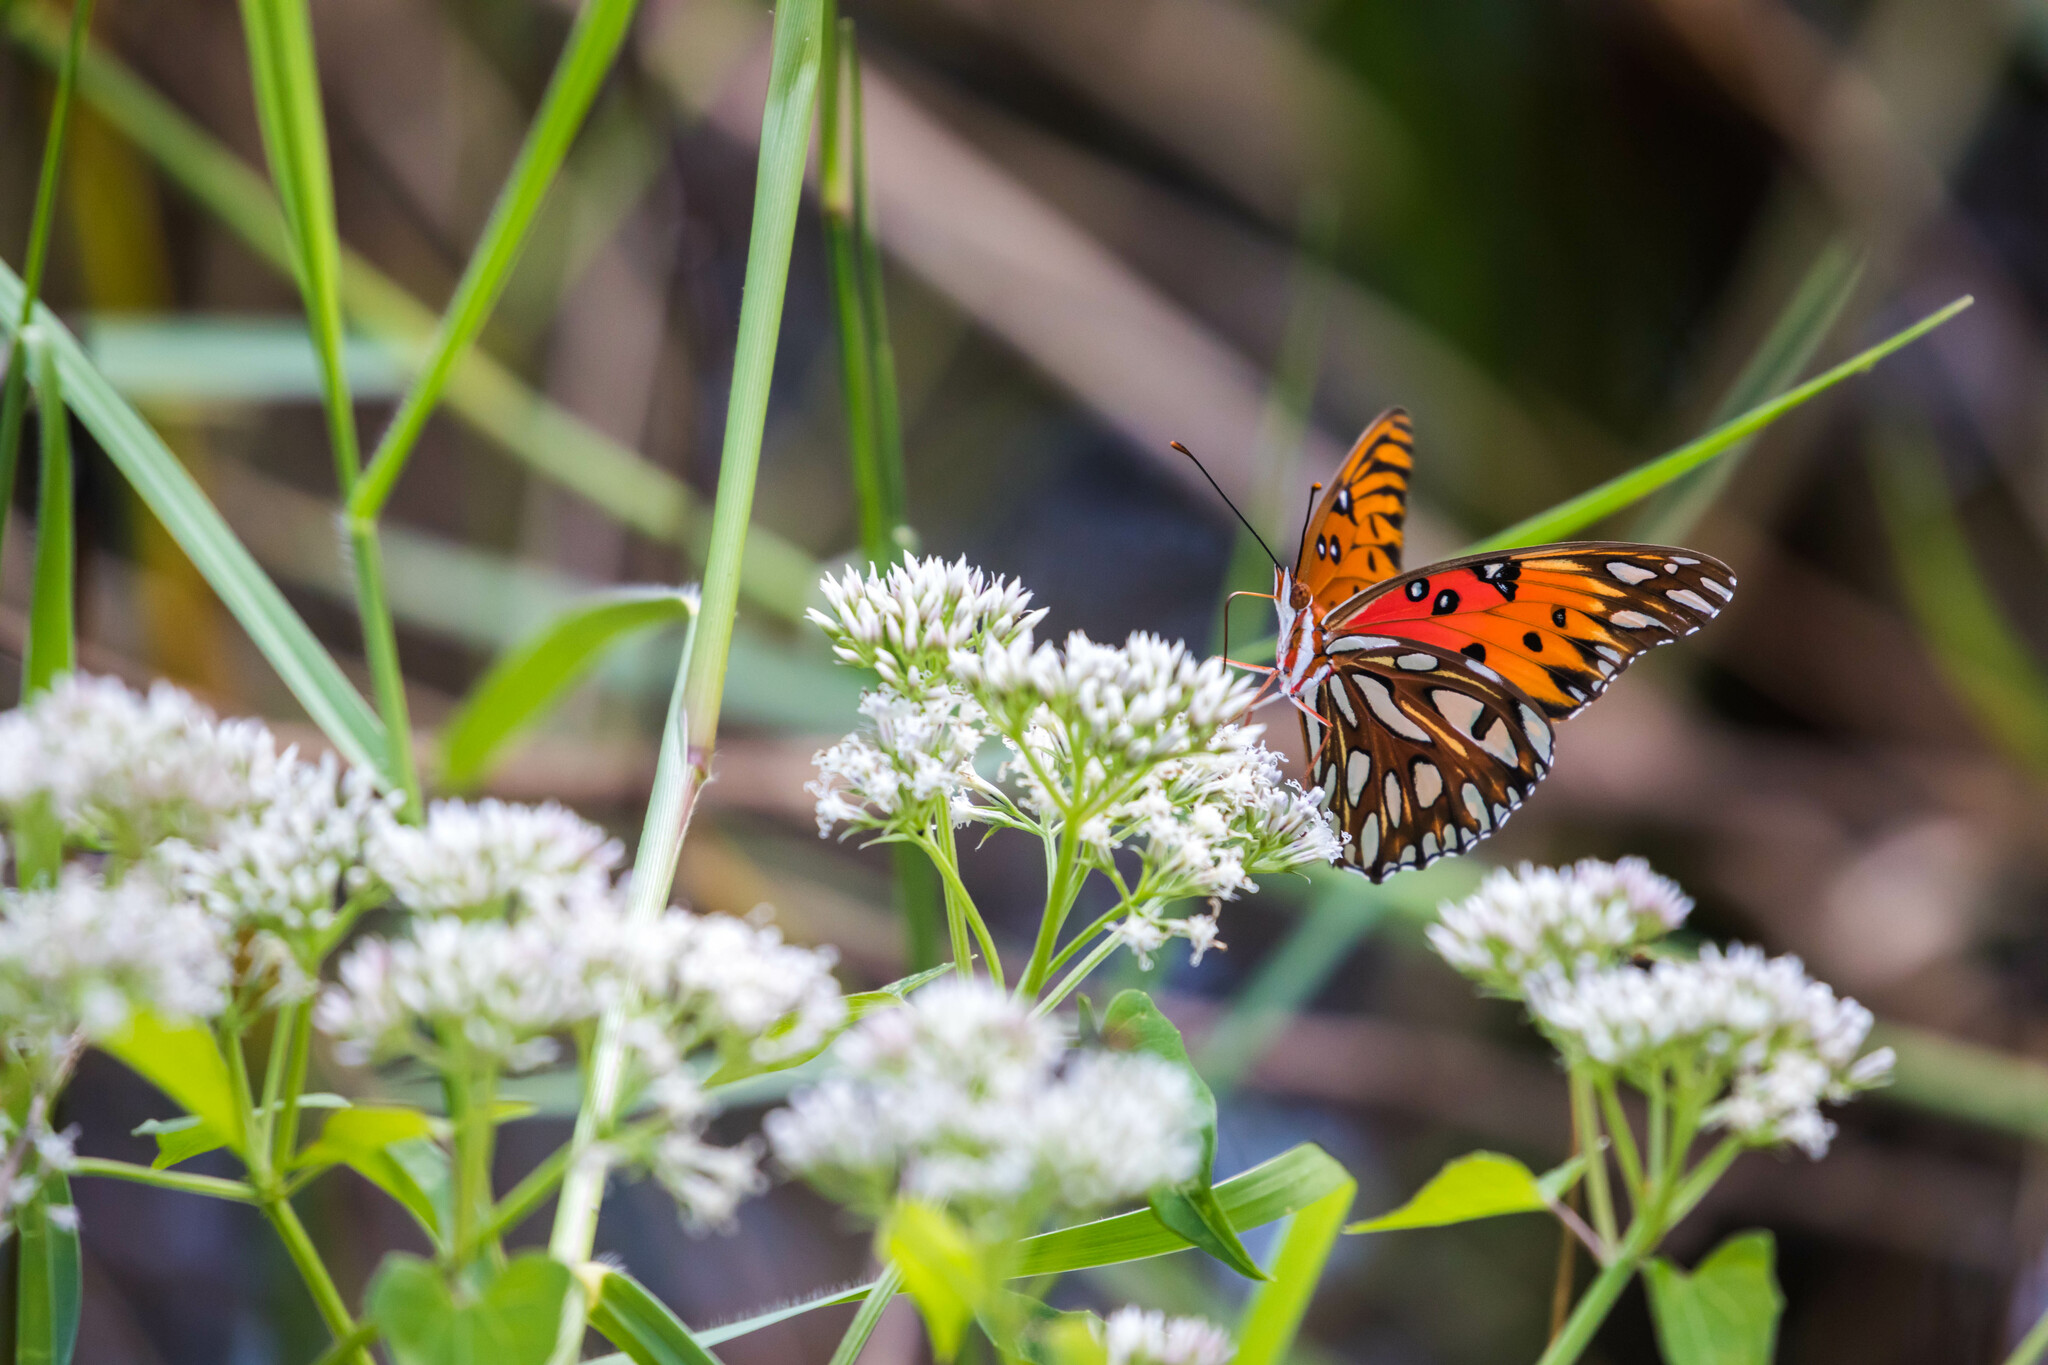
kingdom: Animalia
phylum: Arthropoda
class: Insecta
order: Lepidoptera
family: Nymphalidae
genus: Dione
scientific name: Dione vanillae
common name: Gulf fritillary
